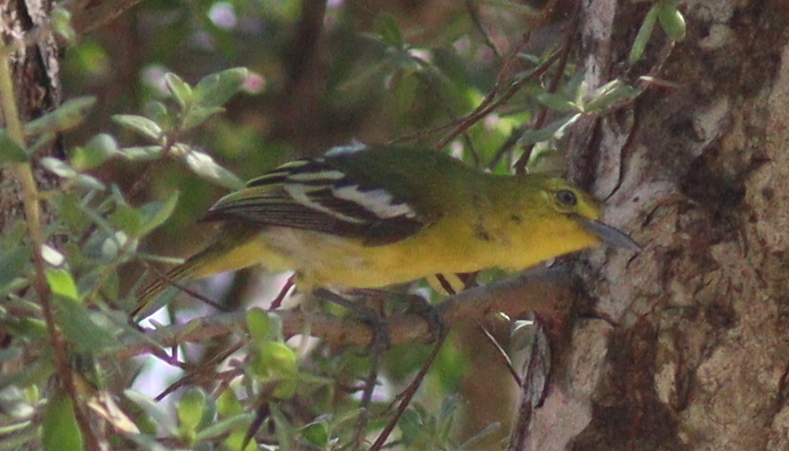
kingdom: Animalia
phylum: Chordata
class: Aves
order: Passeriformes
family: Aegithinidae
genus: Aegithina
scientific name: Aegithina tiphia
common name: Common iora
